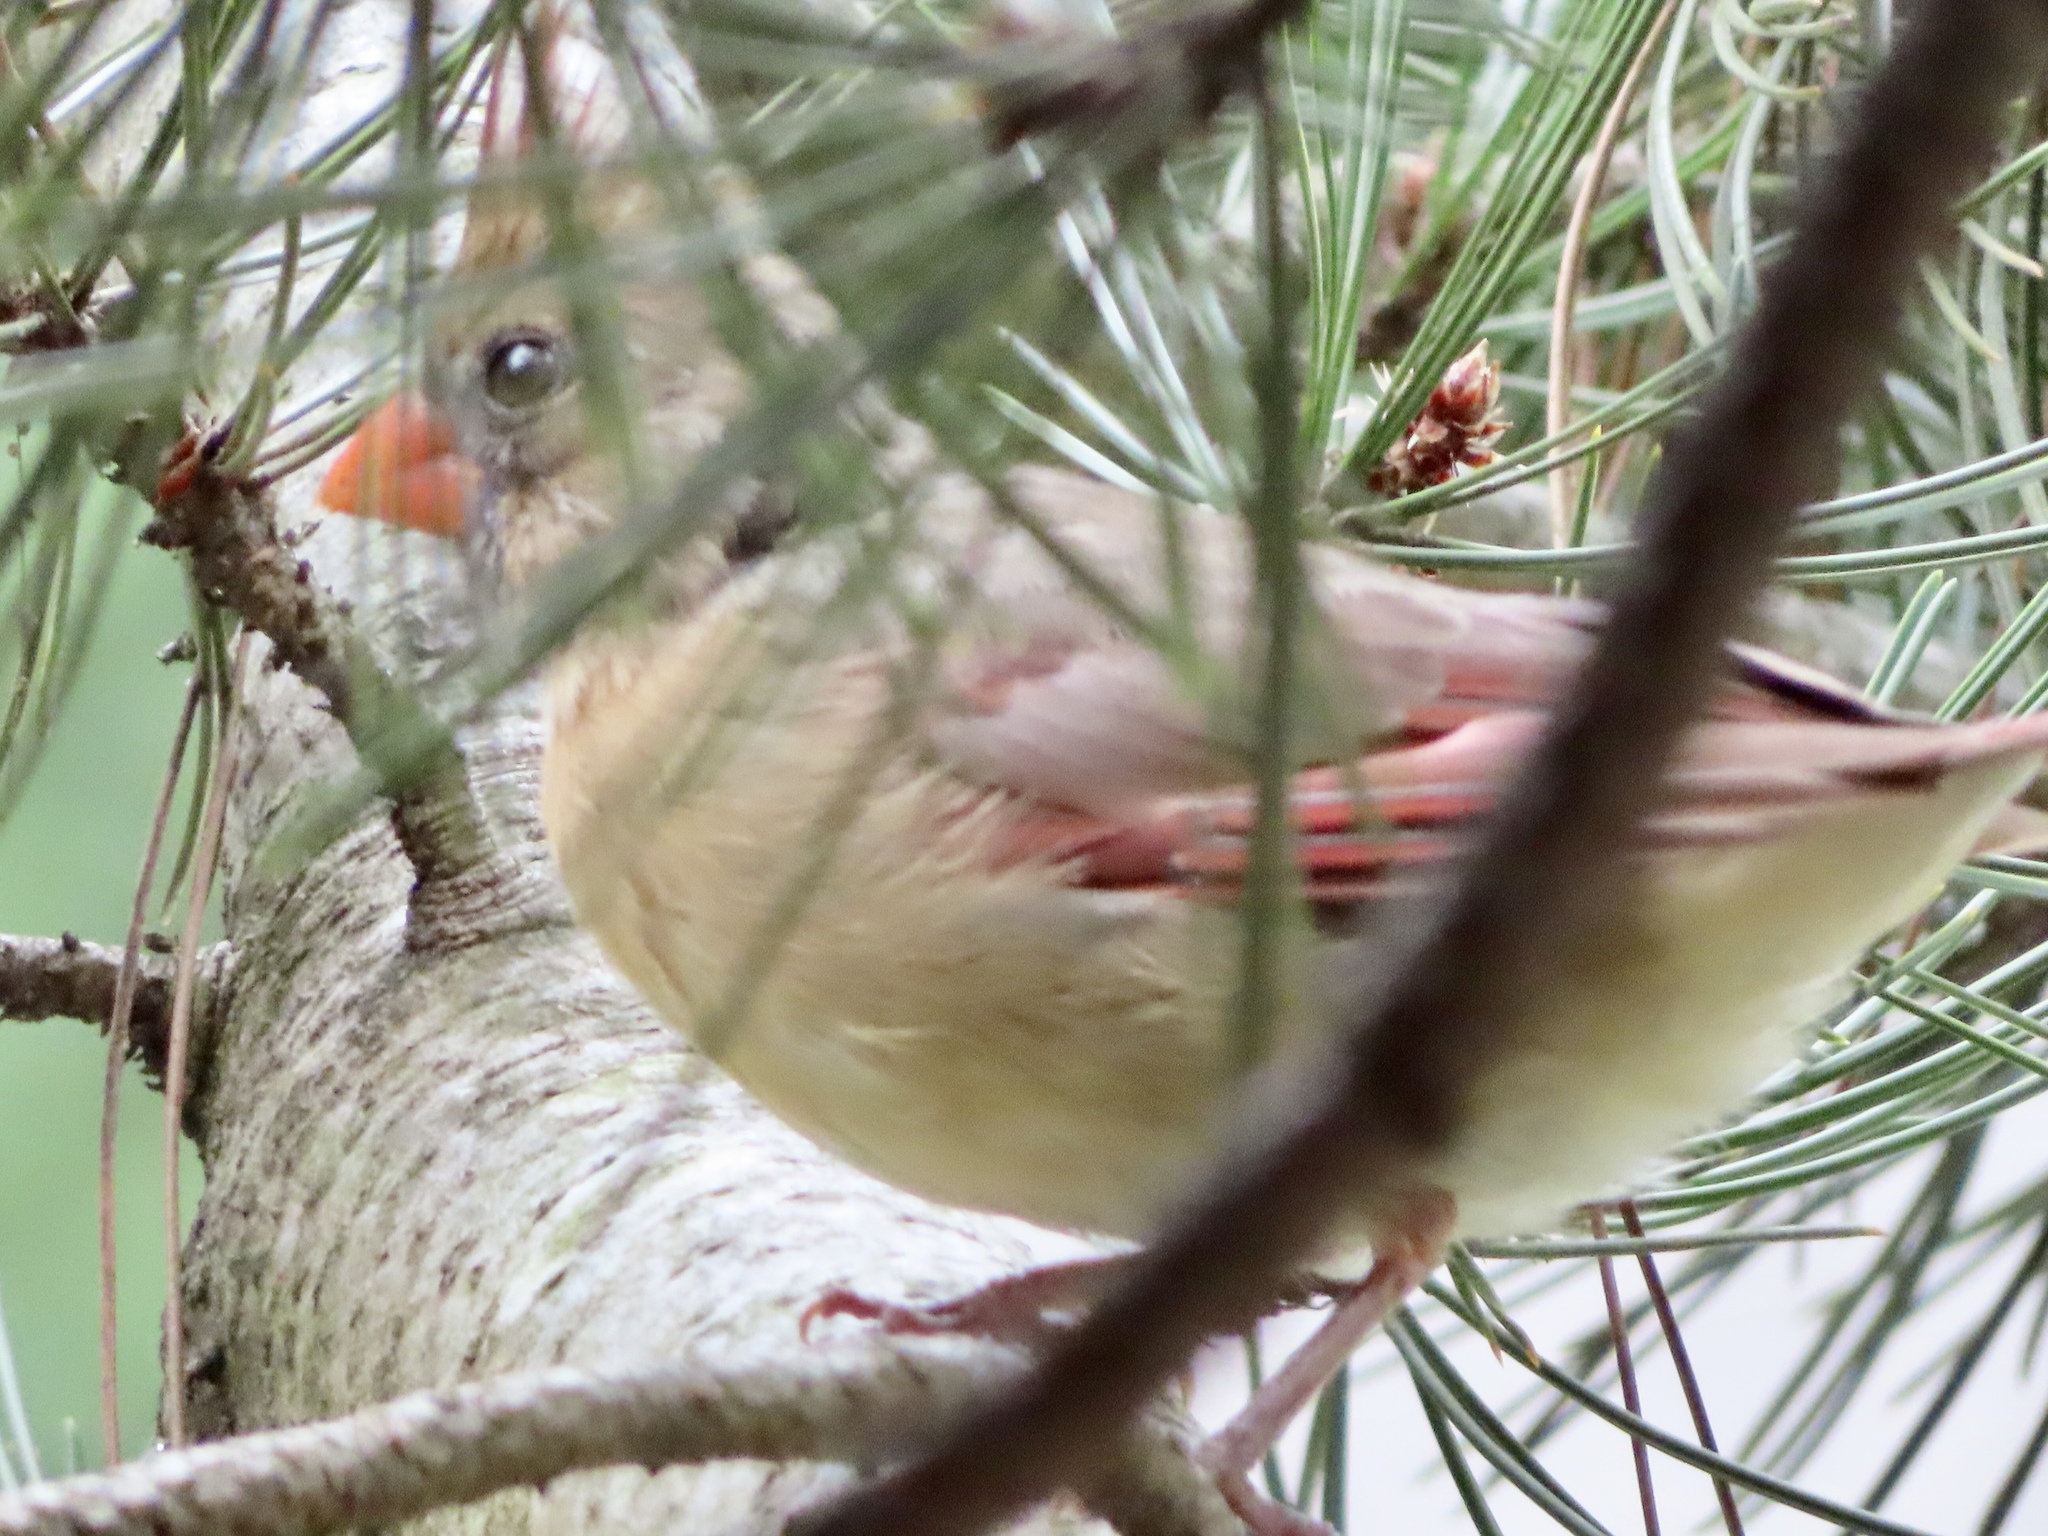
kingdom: Animalia
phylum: Chordata
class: Aves
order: Passeriformes
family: Cardinalidae
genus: Cardinalis
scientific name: Cardinalis cardinalis
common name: Northern cardinal
